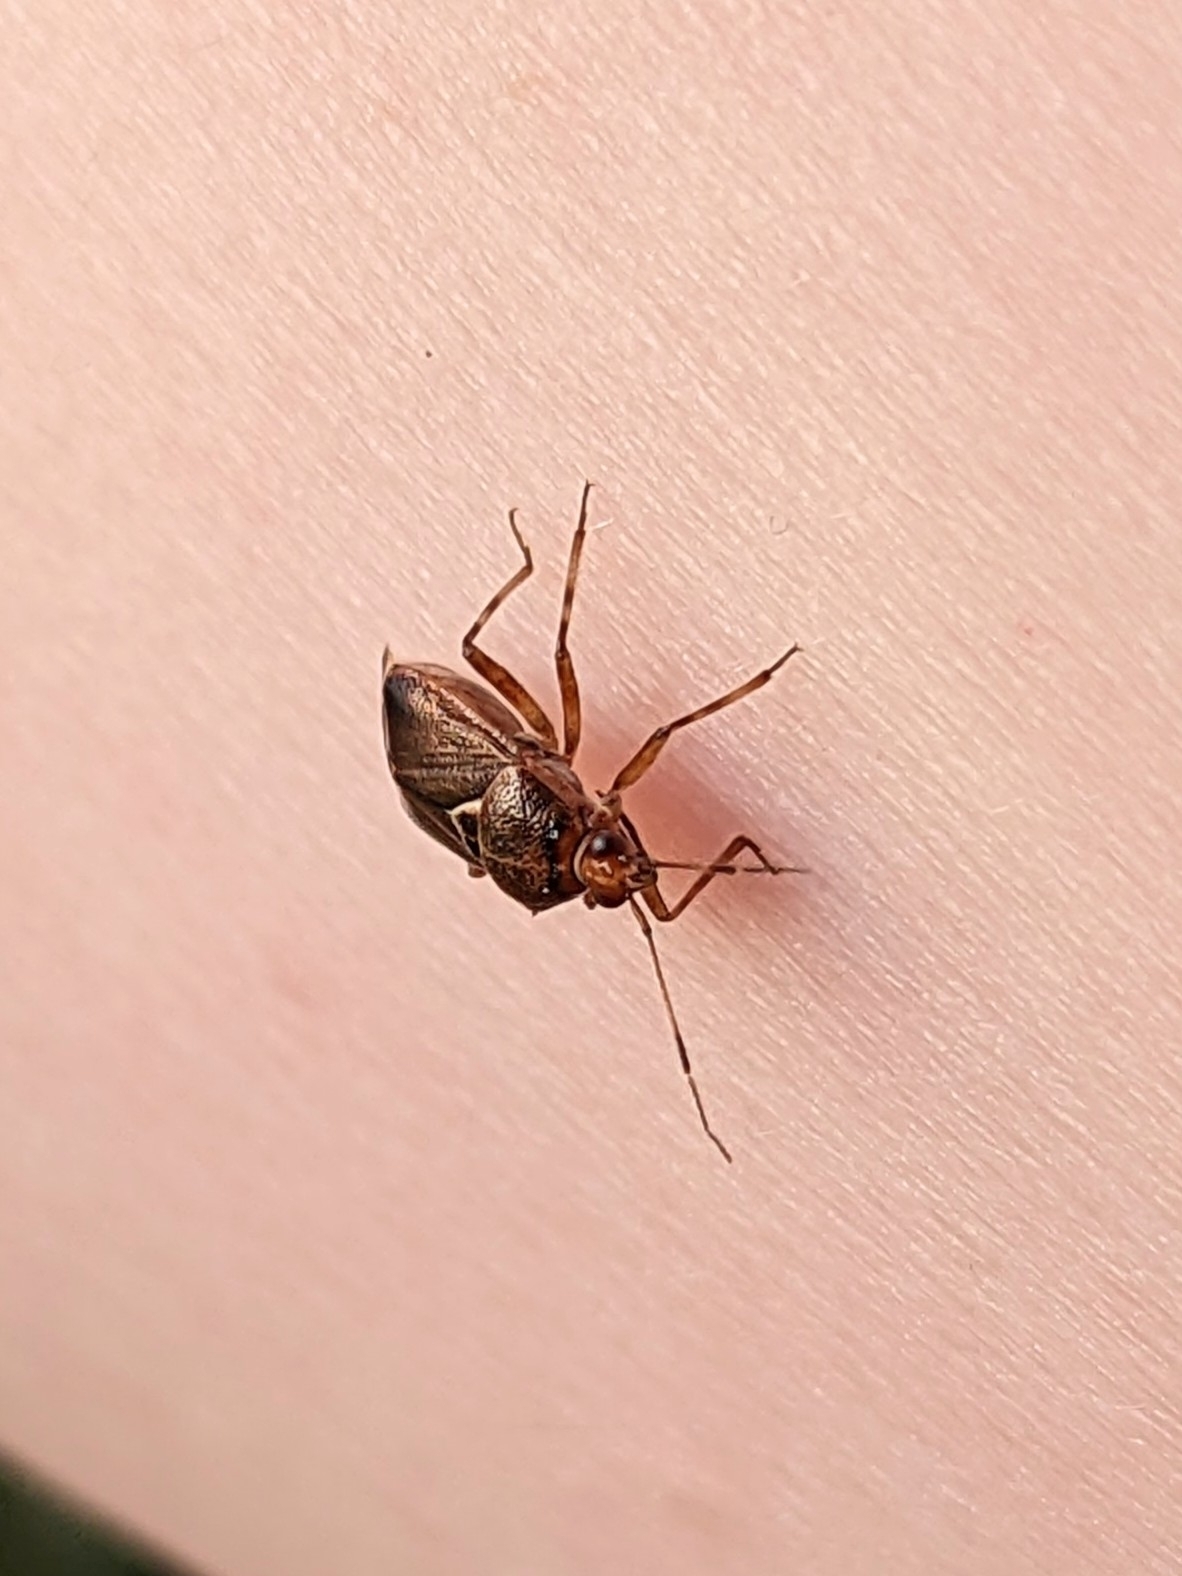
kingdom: Animalia
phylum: Arthropoda
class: Insecta
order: Hemiptera
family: Miridae
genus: Deraeocoris
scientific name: Deraeocoris flavilinea
